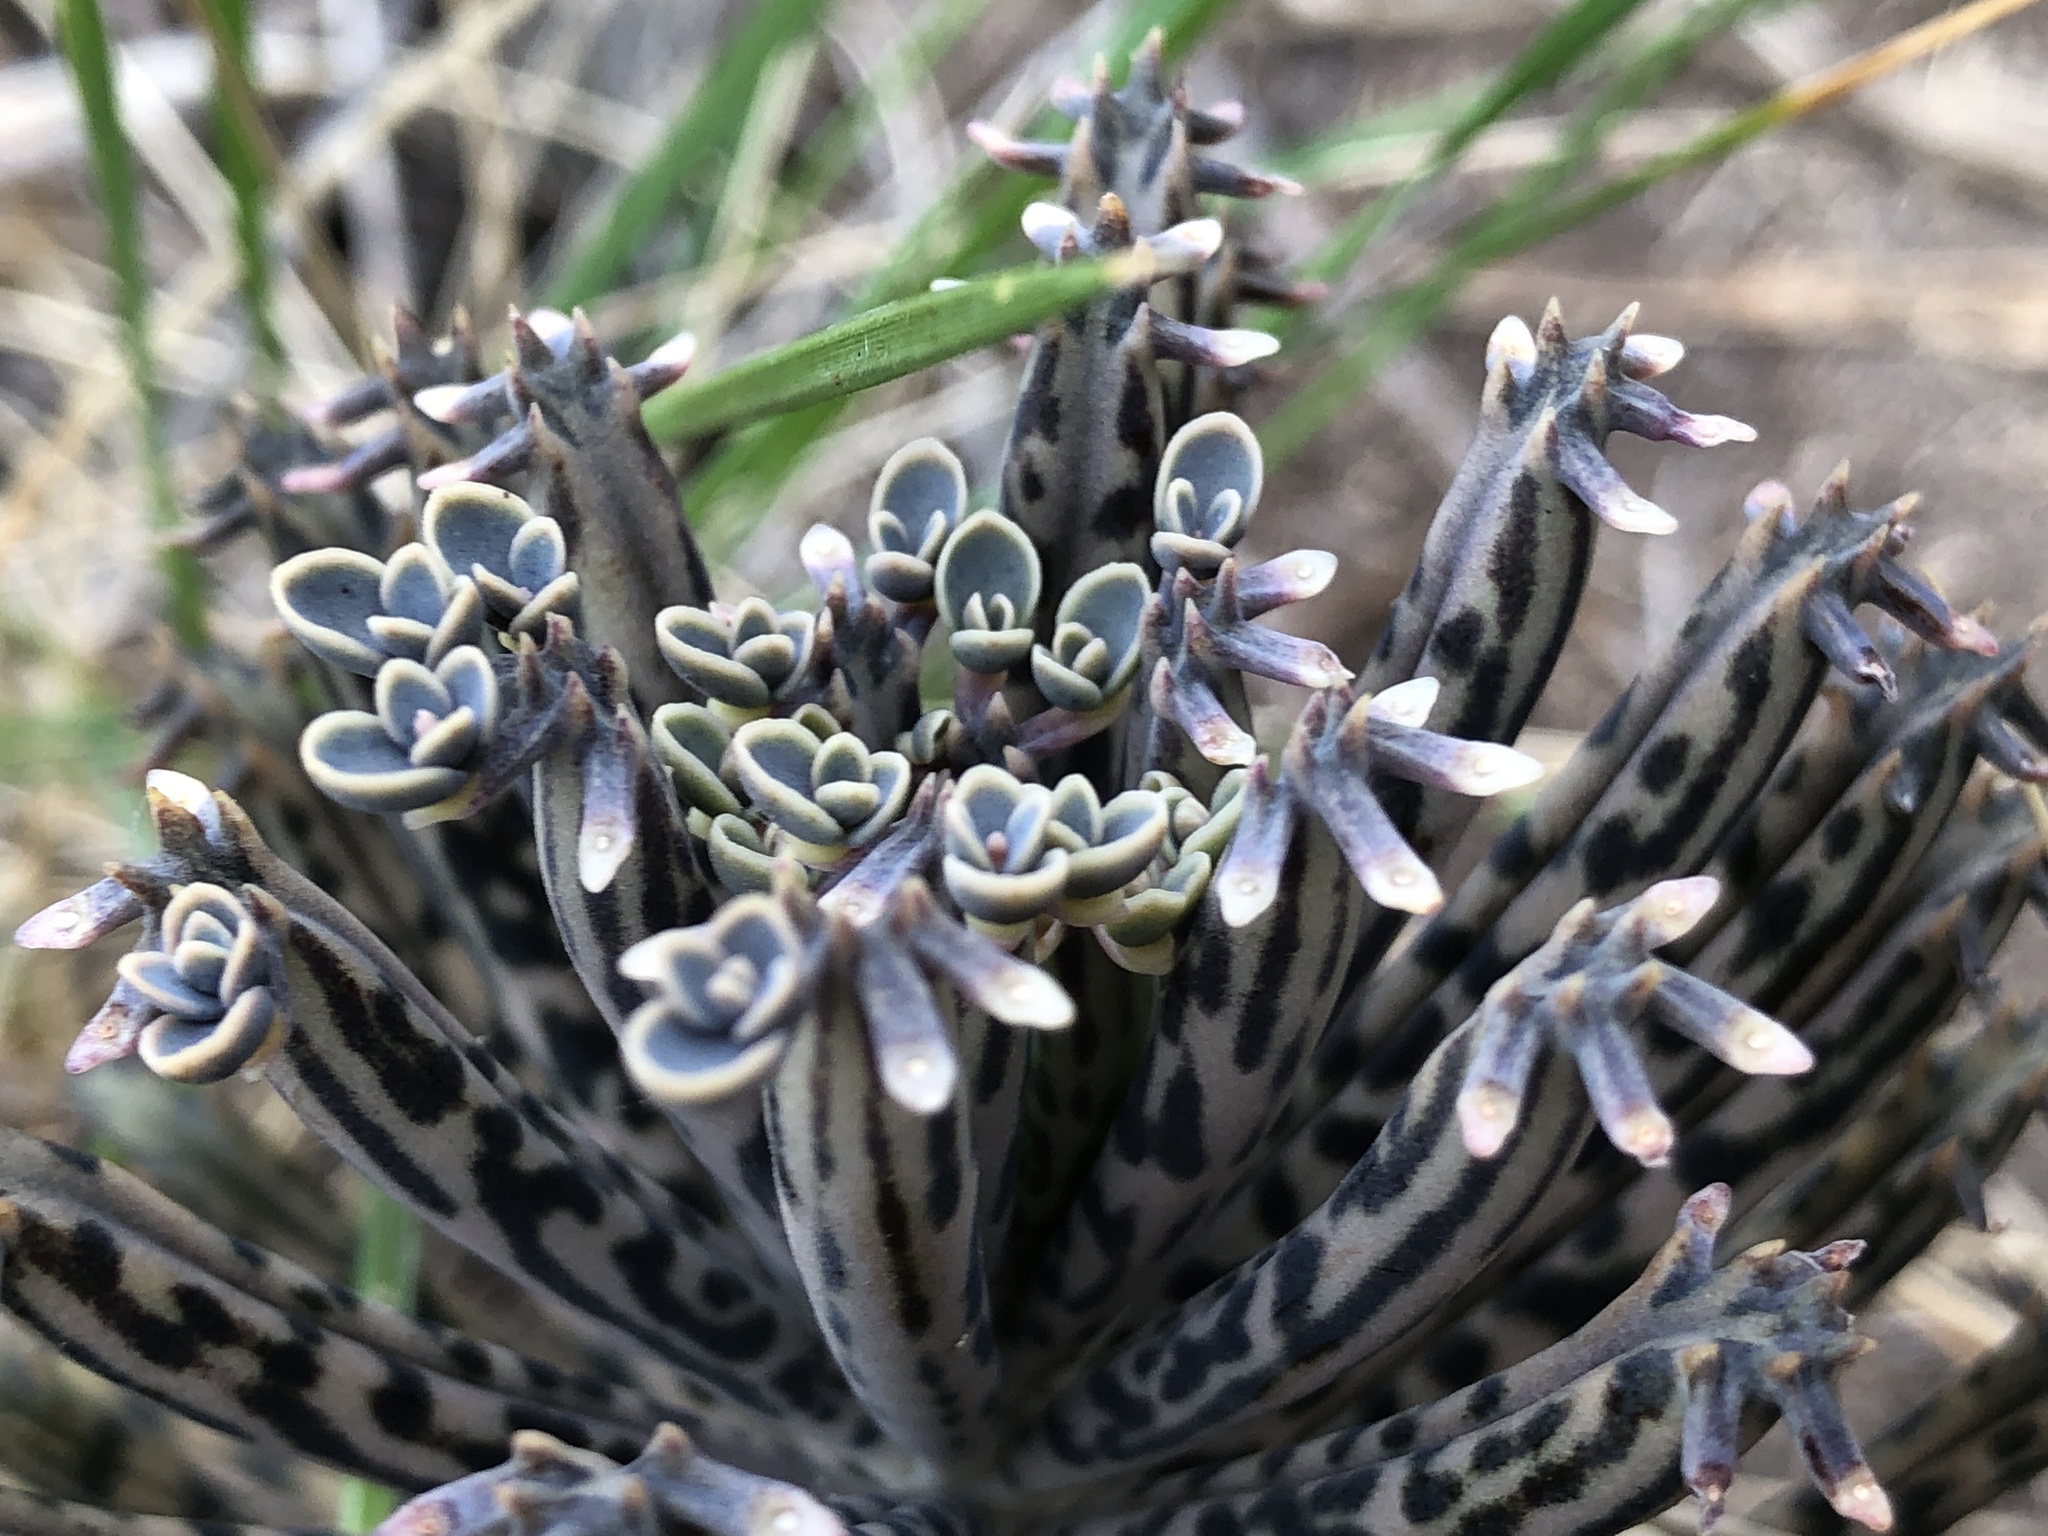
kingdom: Plantae
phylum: Tracheophyta
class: Magnoliopsida
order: Saxifragales
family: Crassulaceae
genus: Kalanchoe
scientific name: Kalanchoe delagoensis
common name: Chandelier plant
